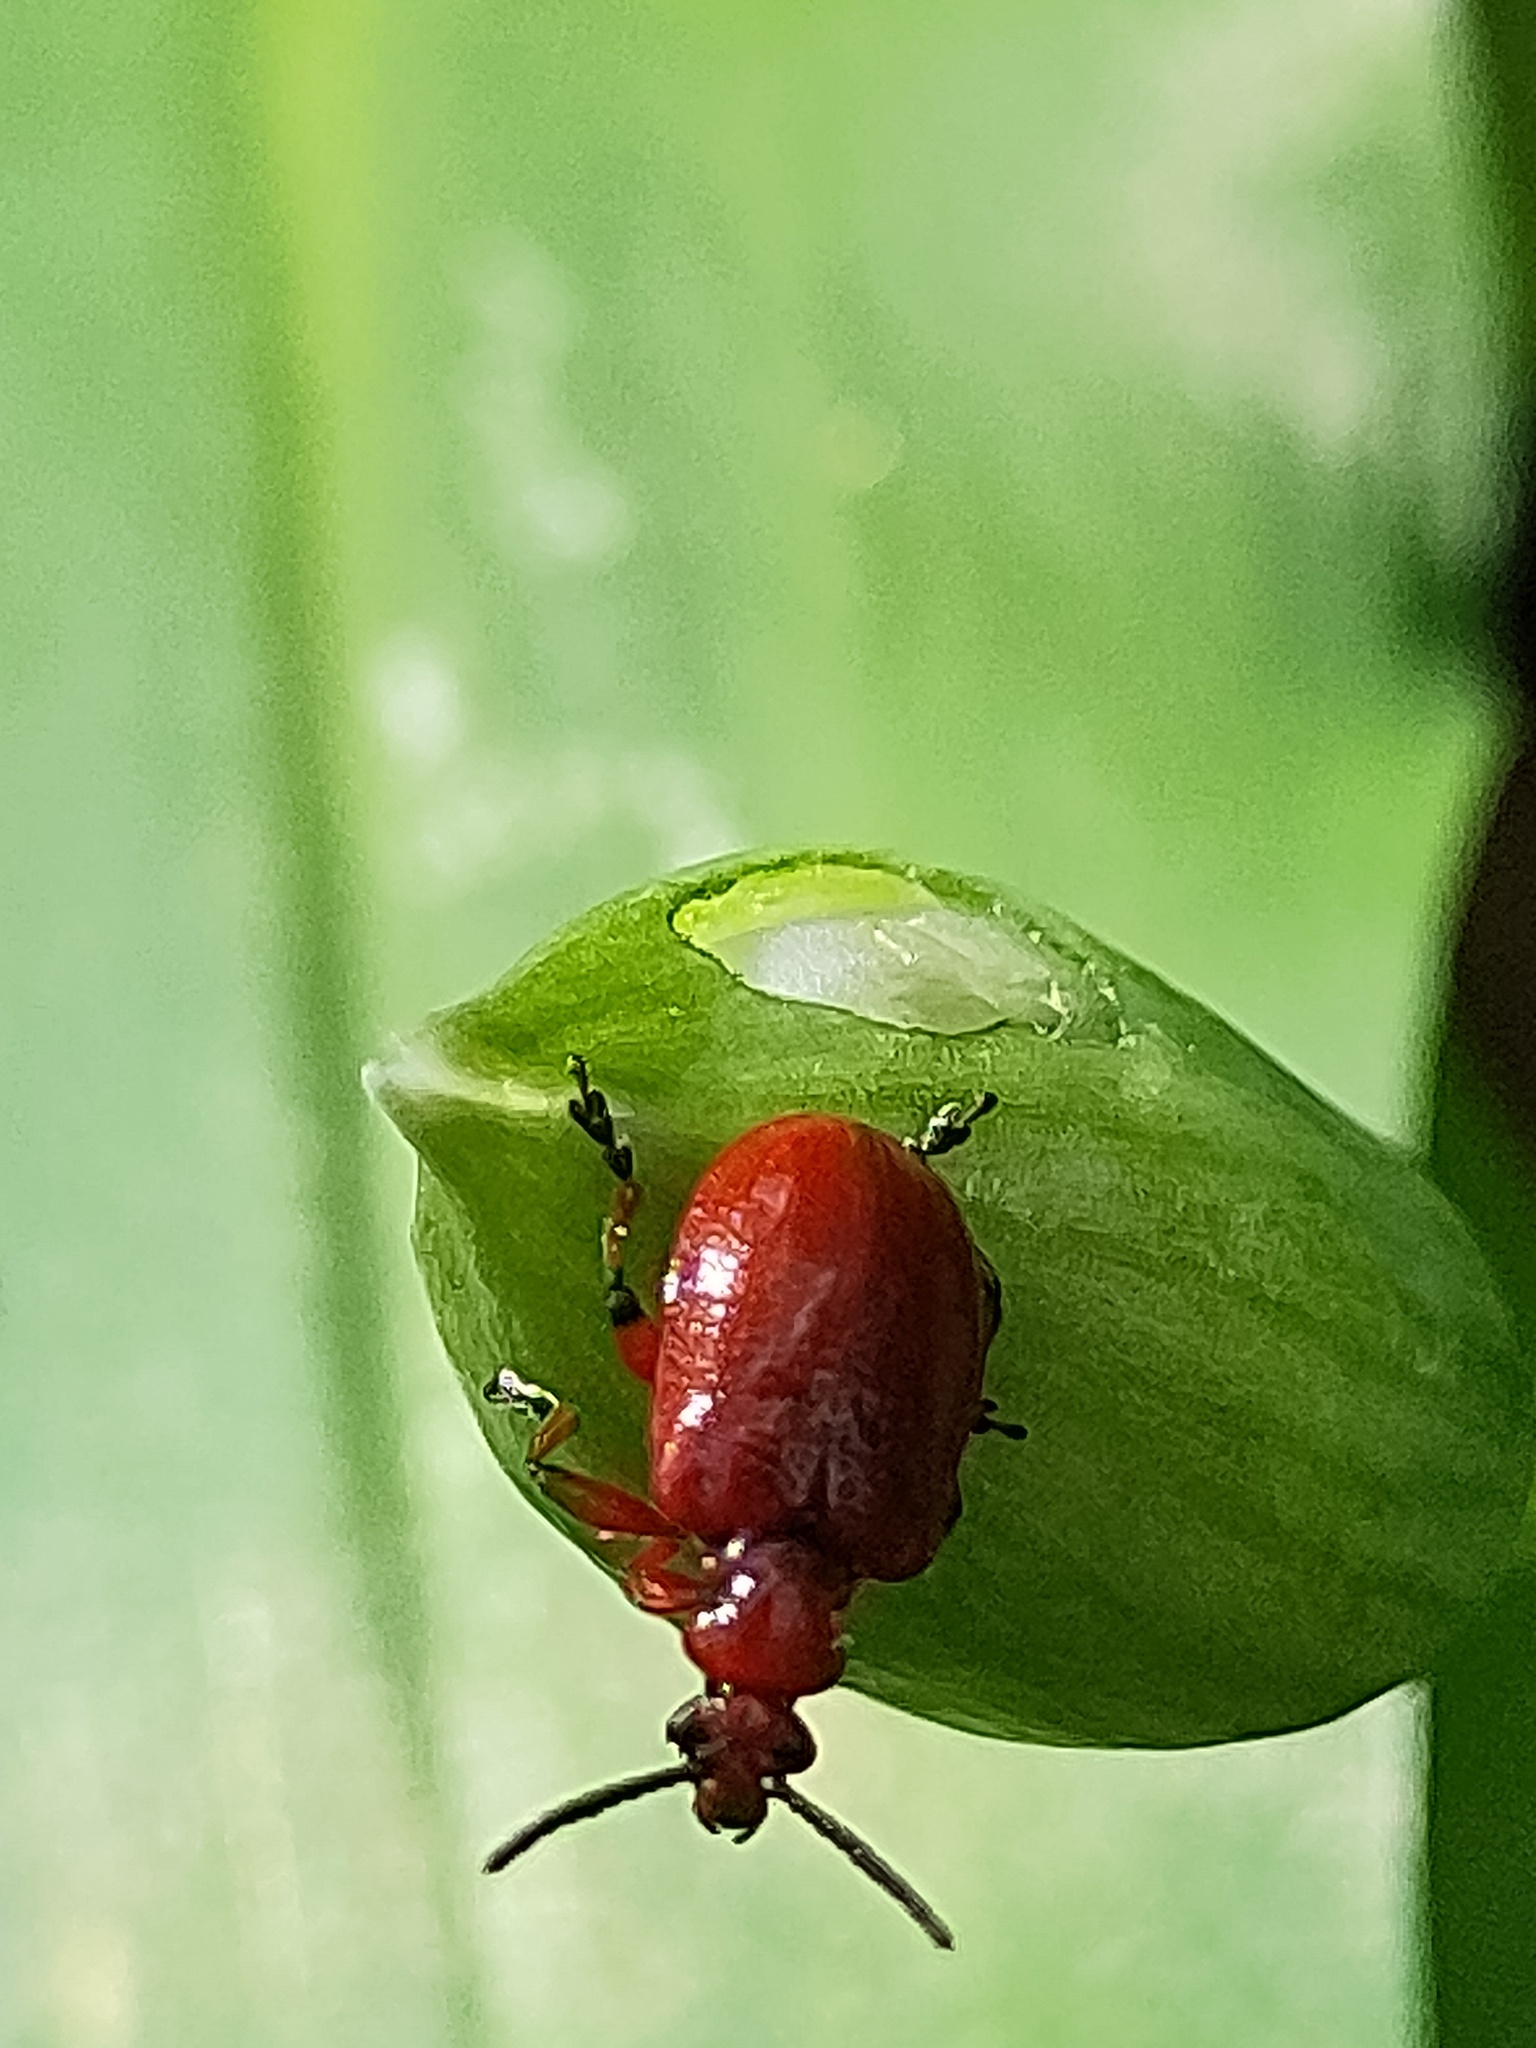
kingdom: Animalia
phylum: Arthropoda
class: Insecta
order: Coleoptera
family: Chrysomelidae
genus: Lilioceris
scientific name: Lilioceris merdigera
